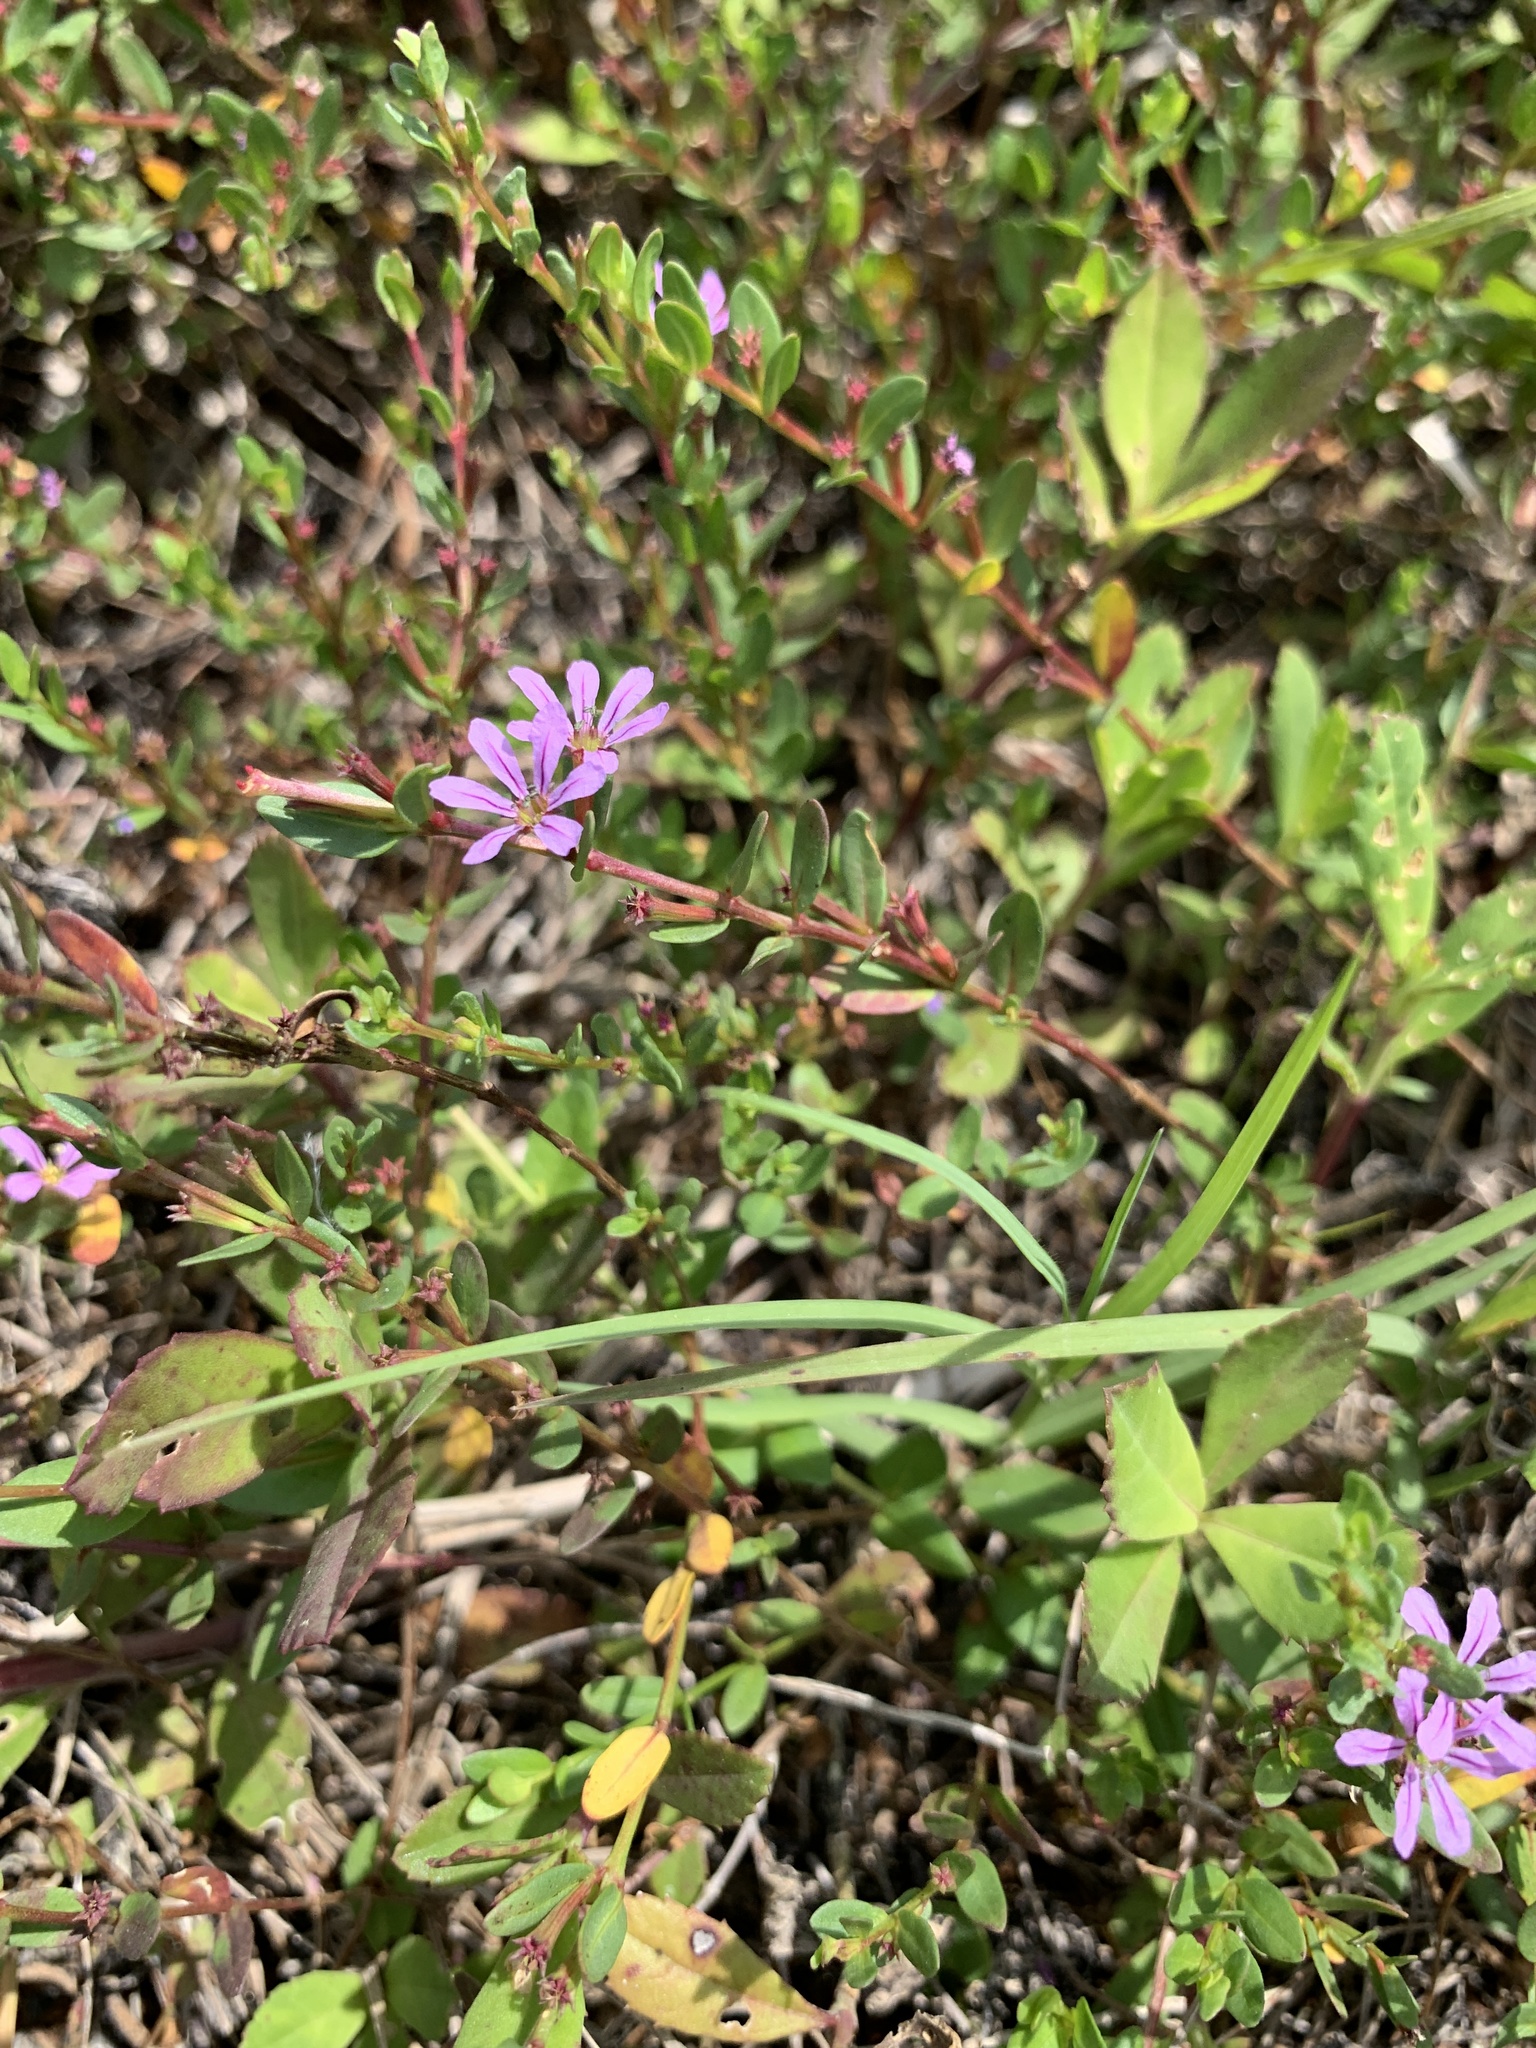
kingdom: Plantae
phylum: Tracheophyta
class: Magnoliopsida
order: Myrtales
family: Lythraceae
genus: Lythrum
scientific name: Lythrum flagellare
